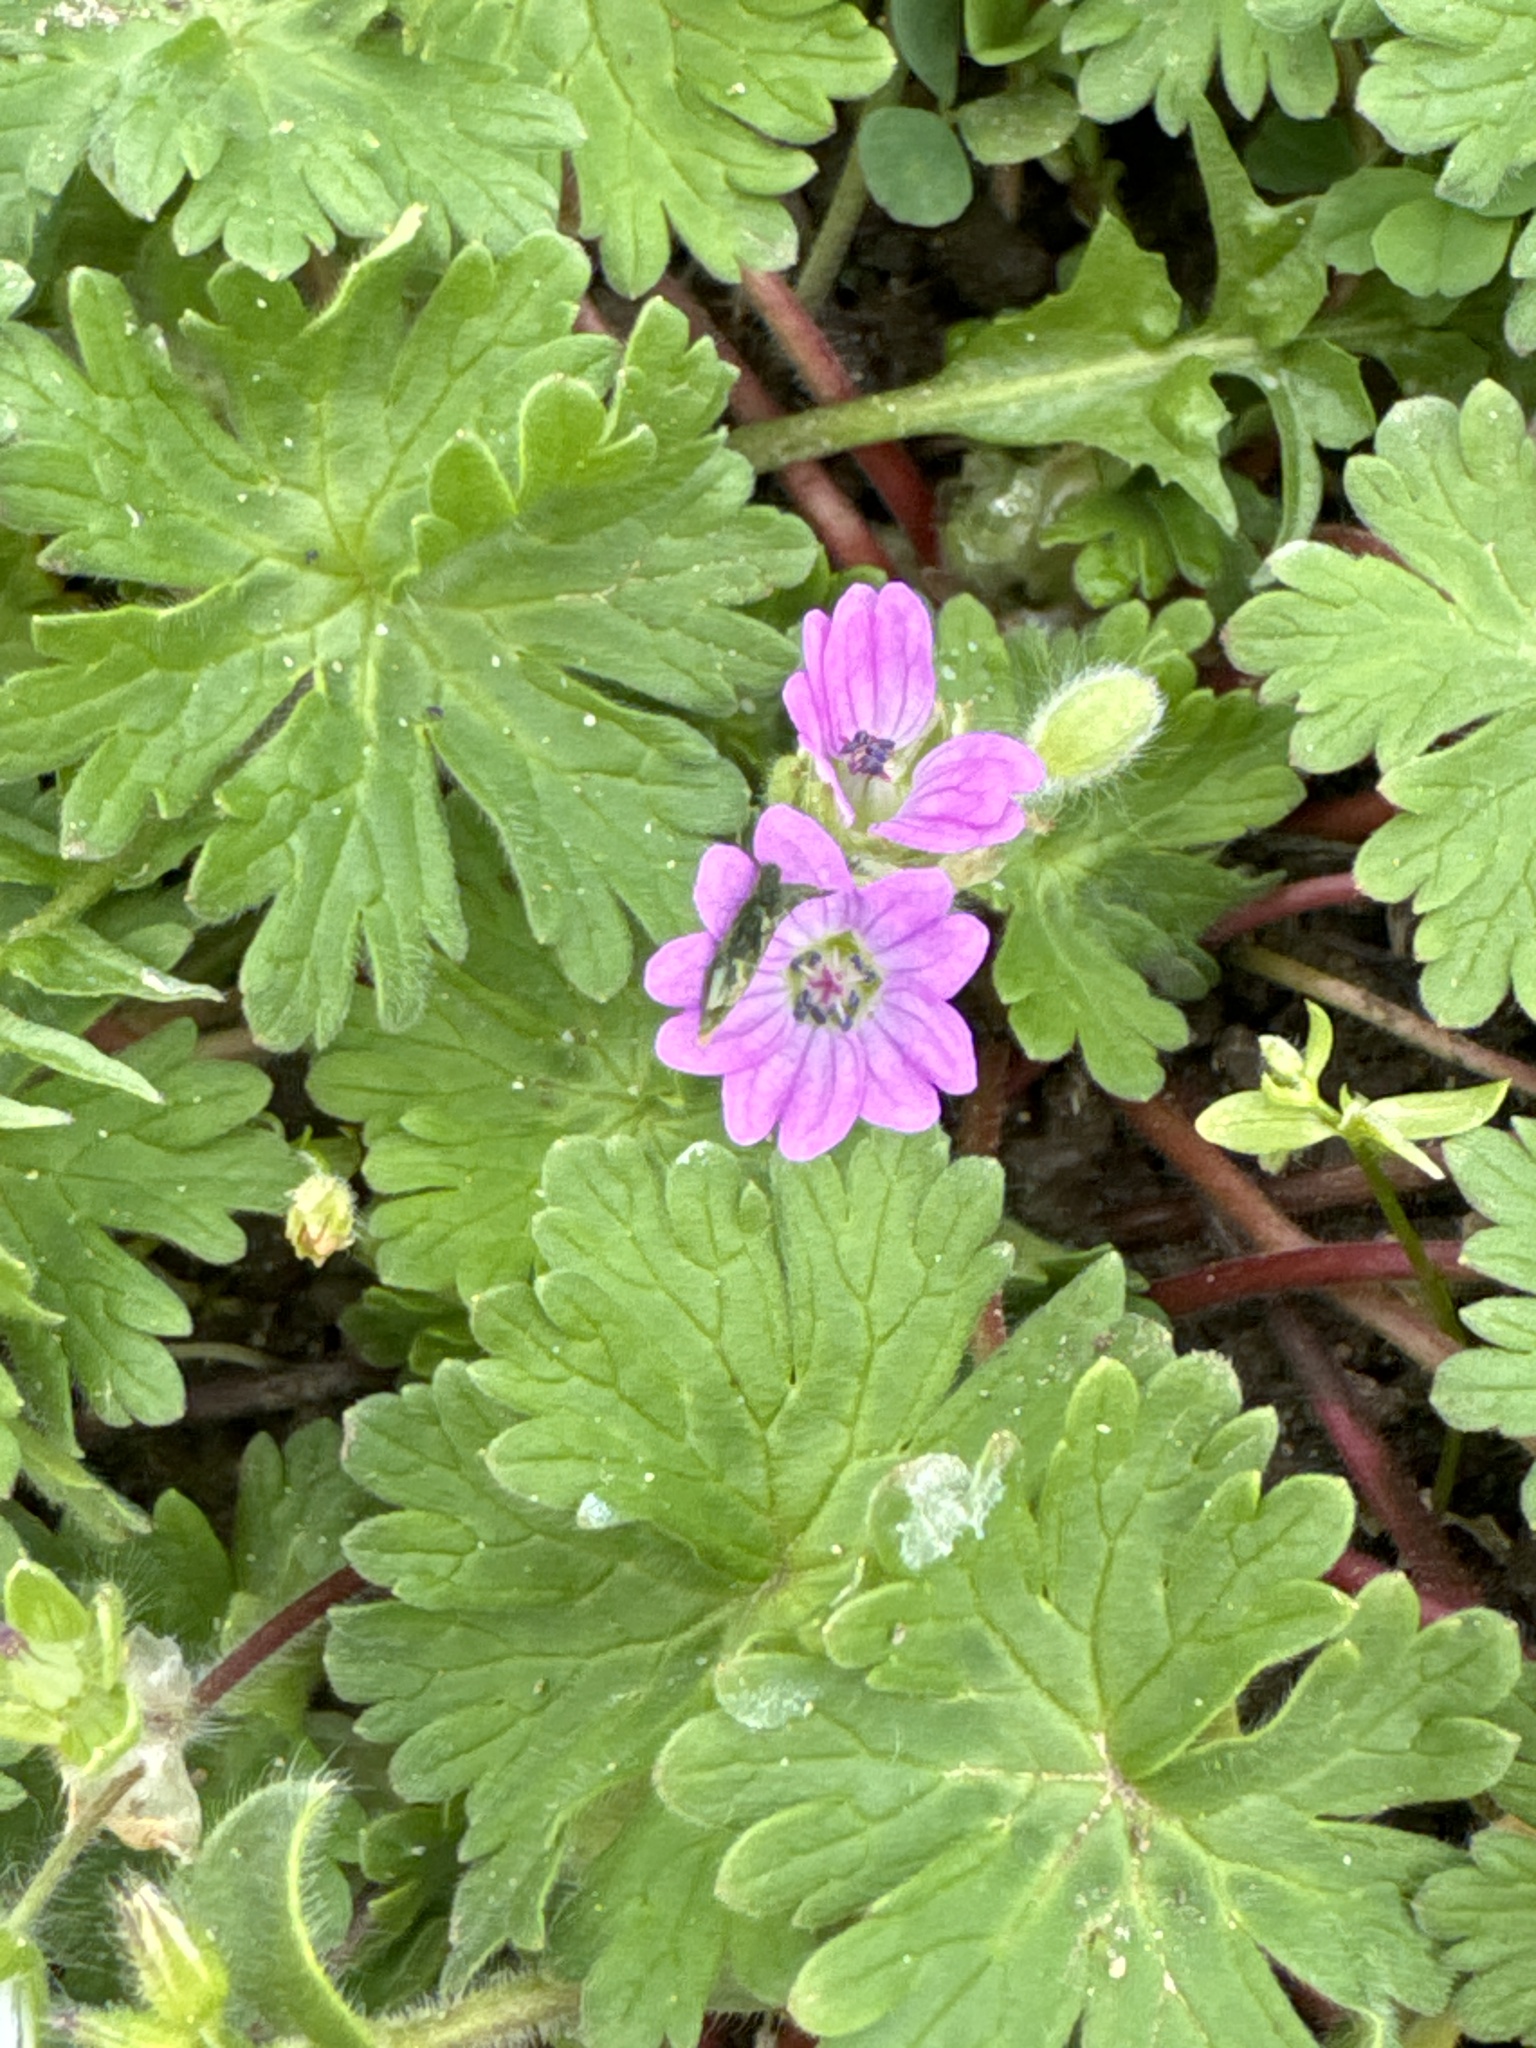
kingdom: Plantae
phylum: Tracheophyta
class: Magnoliopsida
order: Geraniales
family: Geraniaceae
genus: Geranium
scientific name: Geranium molle
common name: Dove's-foot crane's-bill
